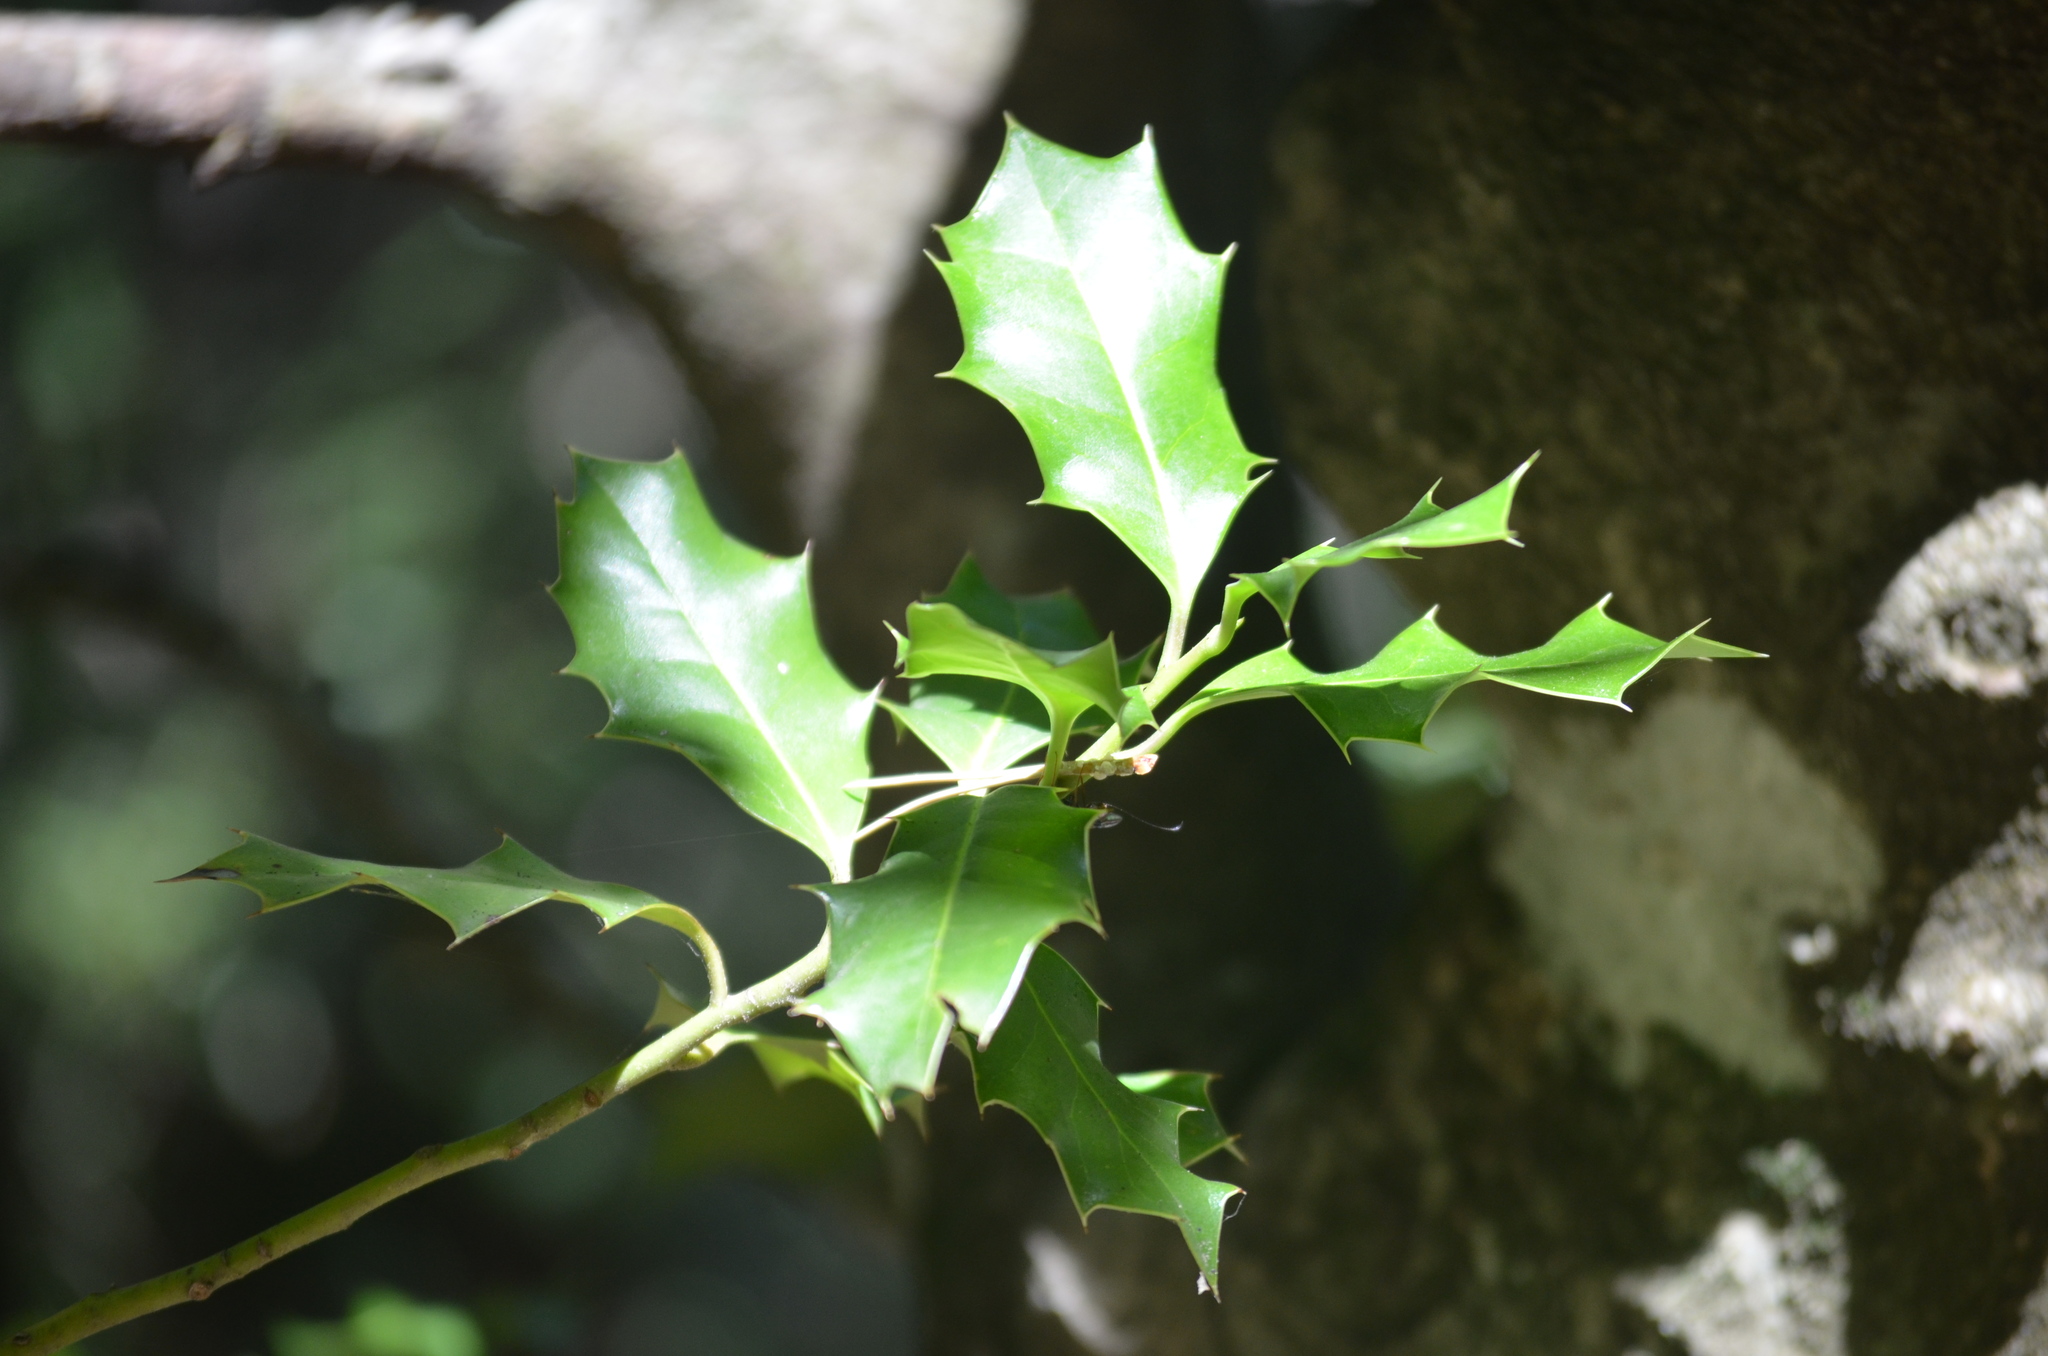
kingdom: Plantae
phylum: Tracheophyta
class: Magnoliopsida
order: Aquifoliales
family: Aquifoliaceae
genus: Ilex
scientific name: Ilex aquifolium
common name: English holly
